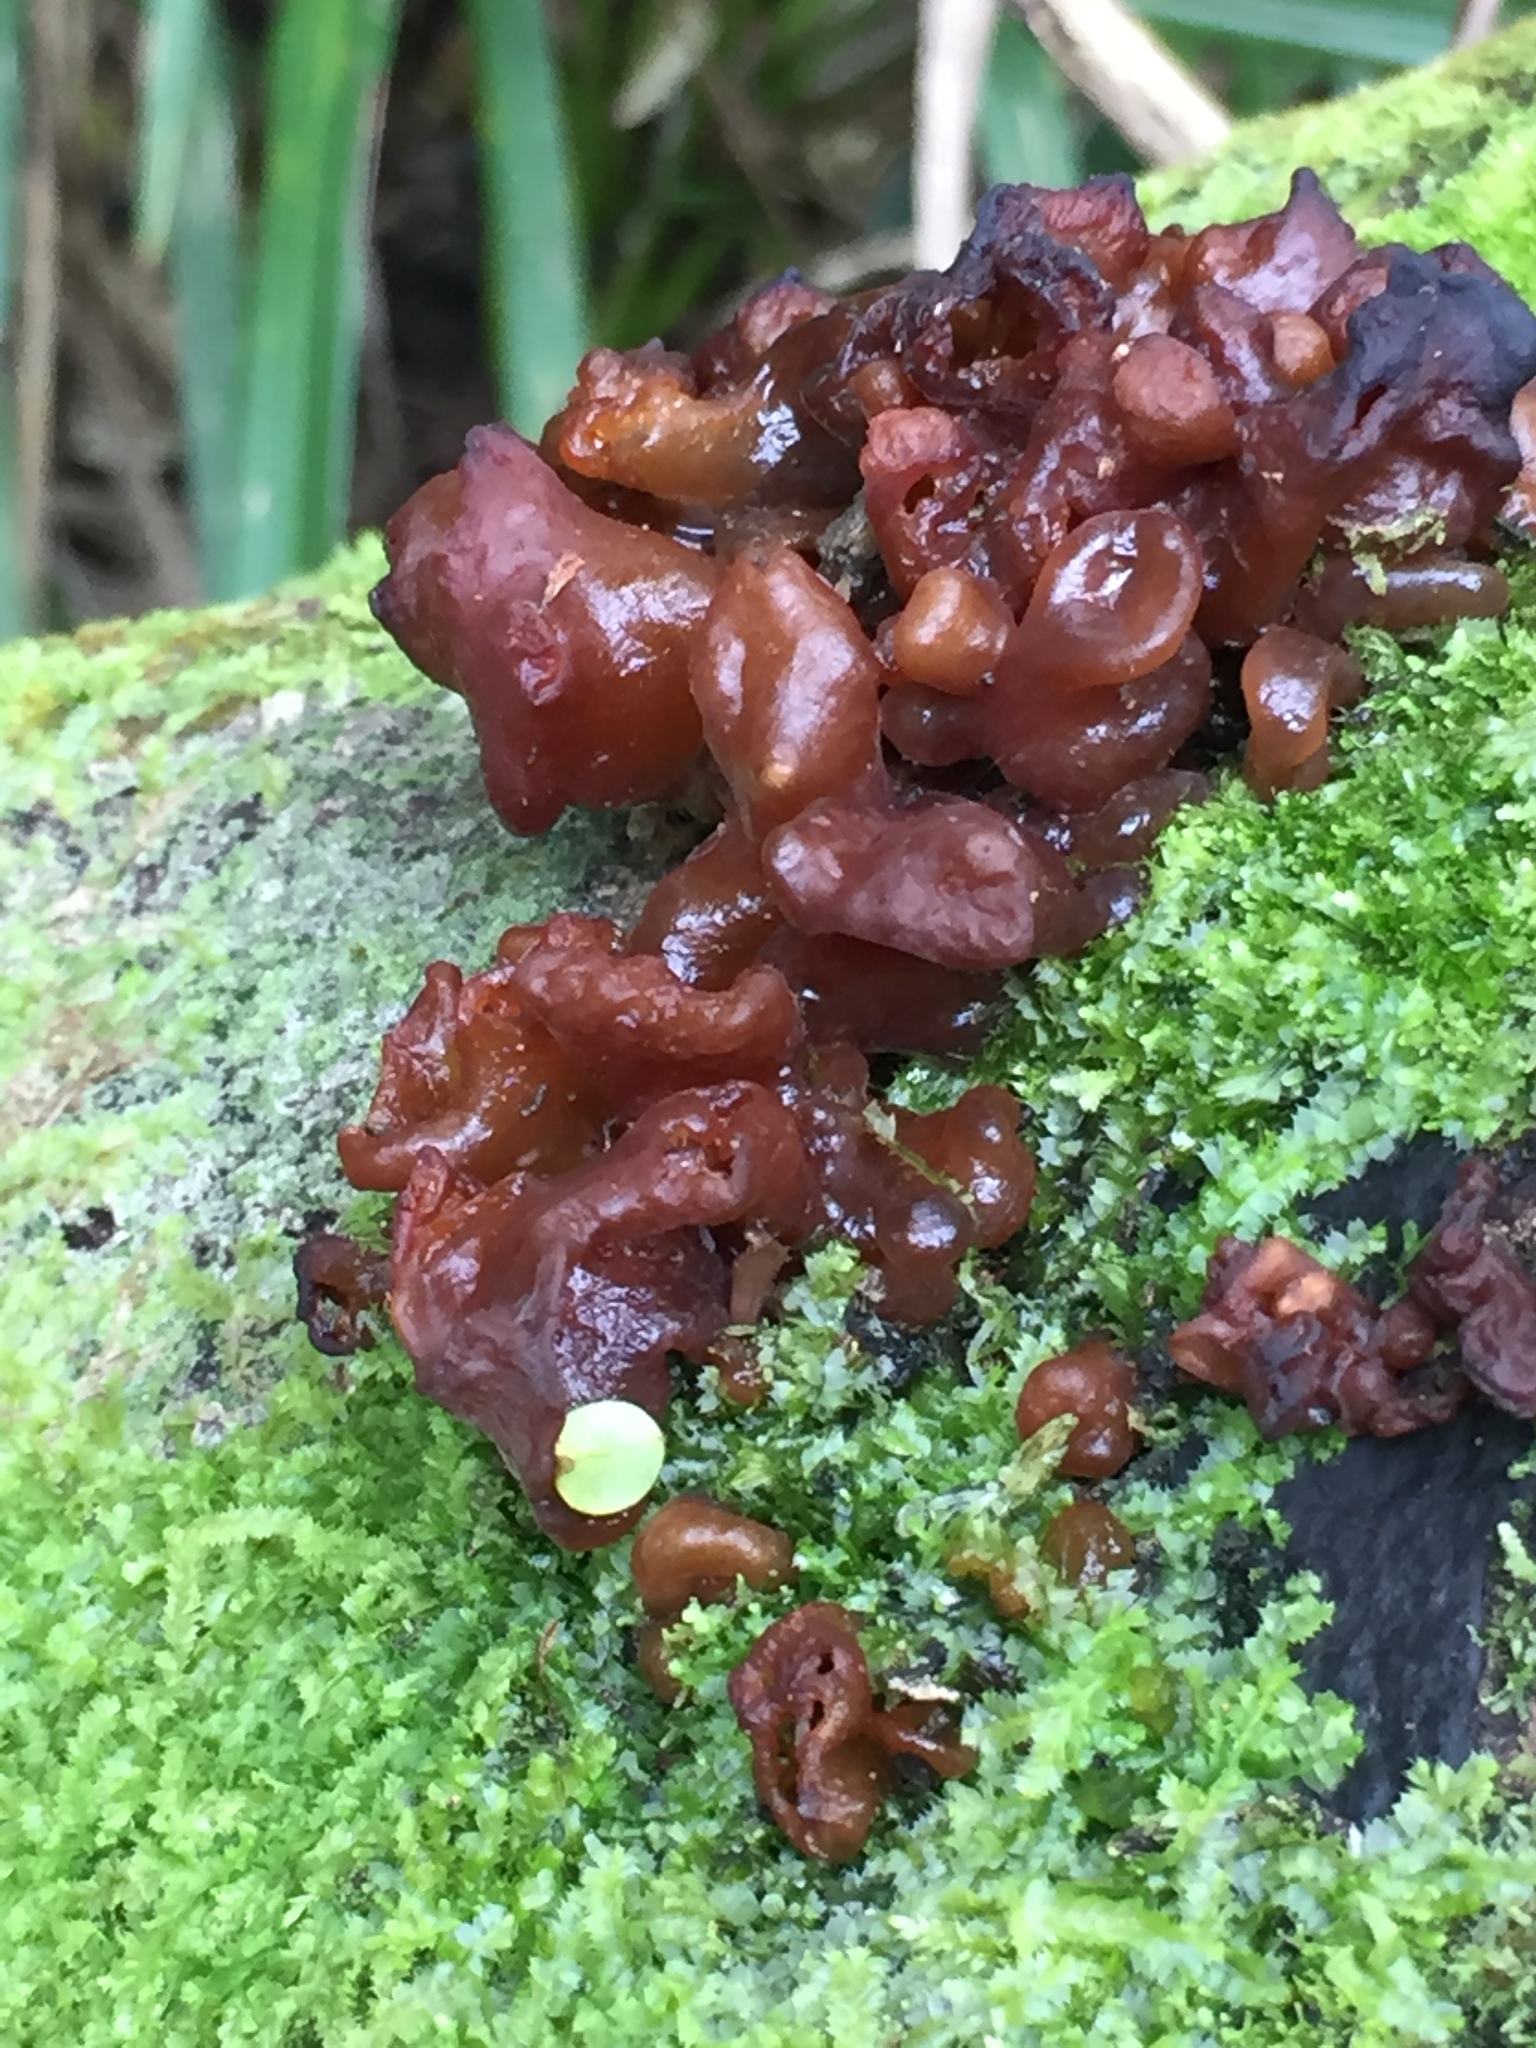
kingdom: Fungi
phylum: Basidiomycota
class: Tremellomycetes
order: Tremellales
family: Tremellaceae
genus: Tremella
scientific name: Tremella vesiculosa
